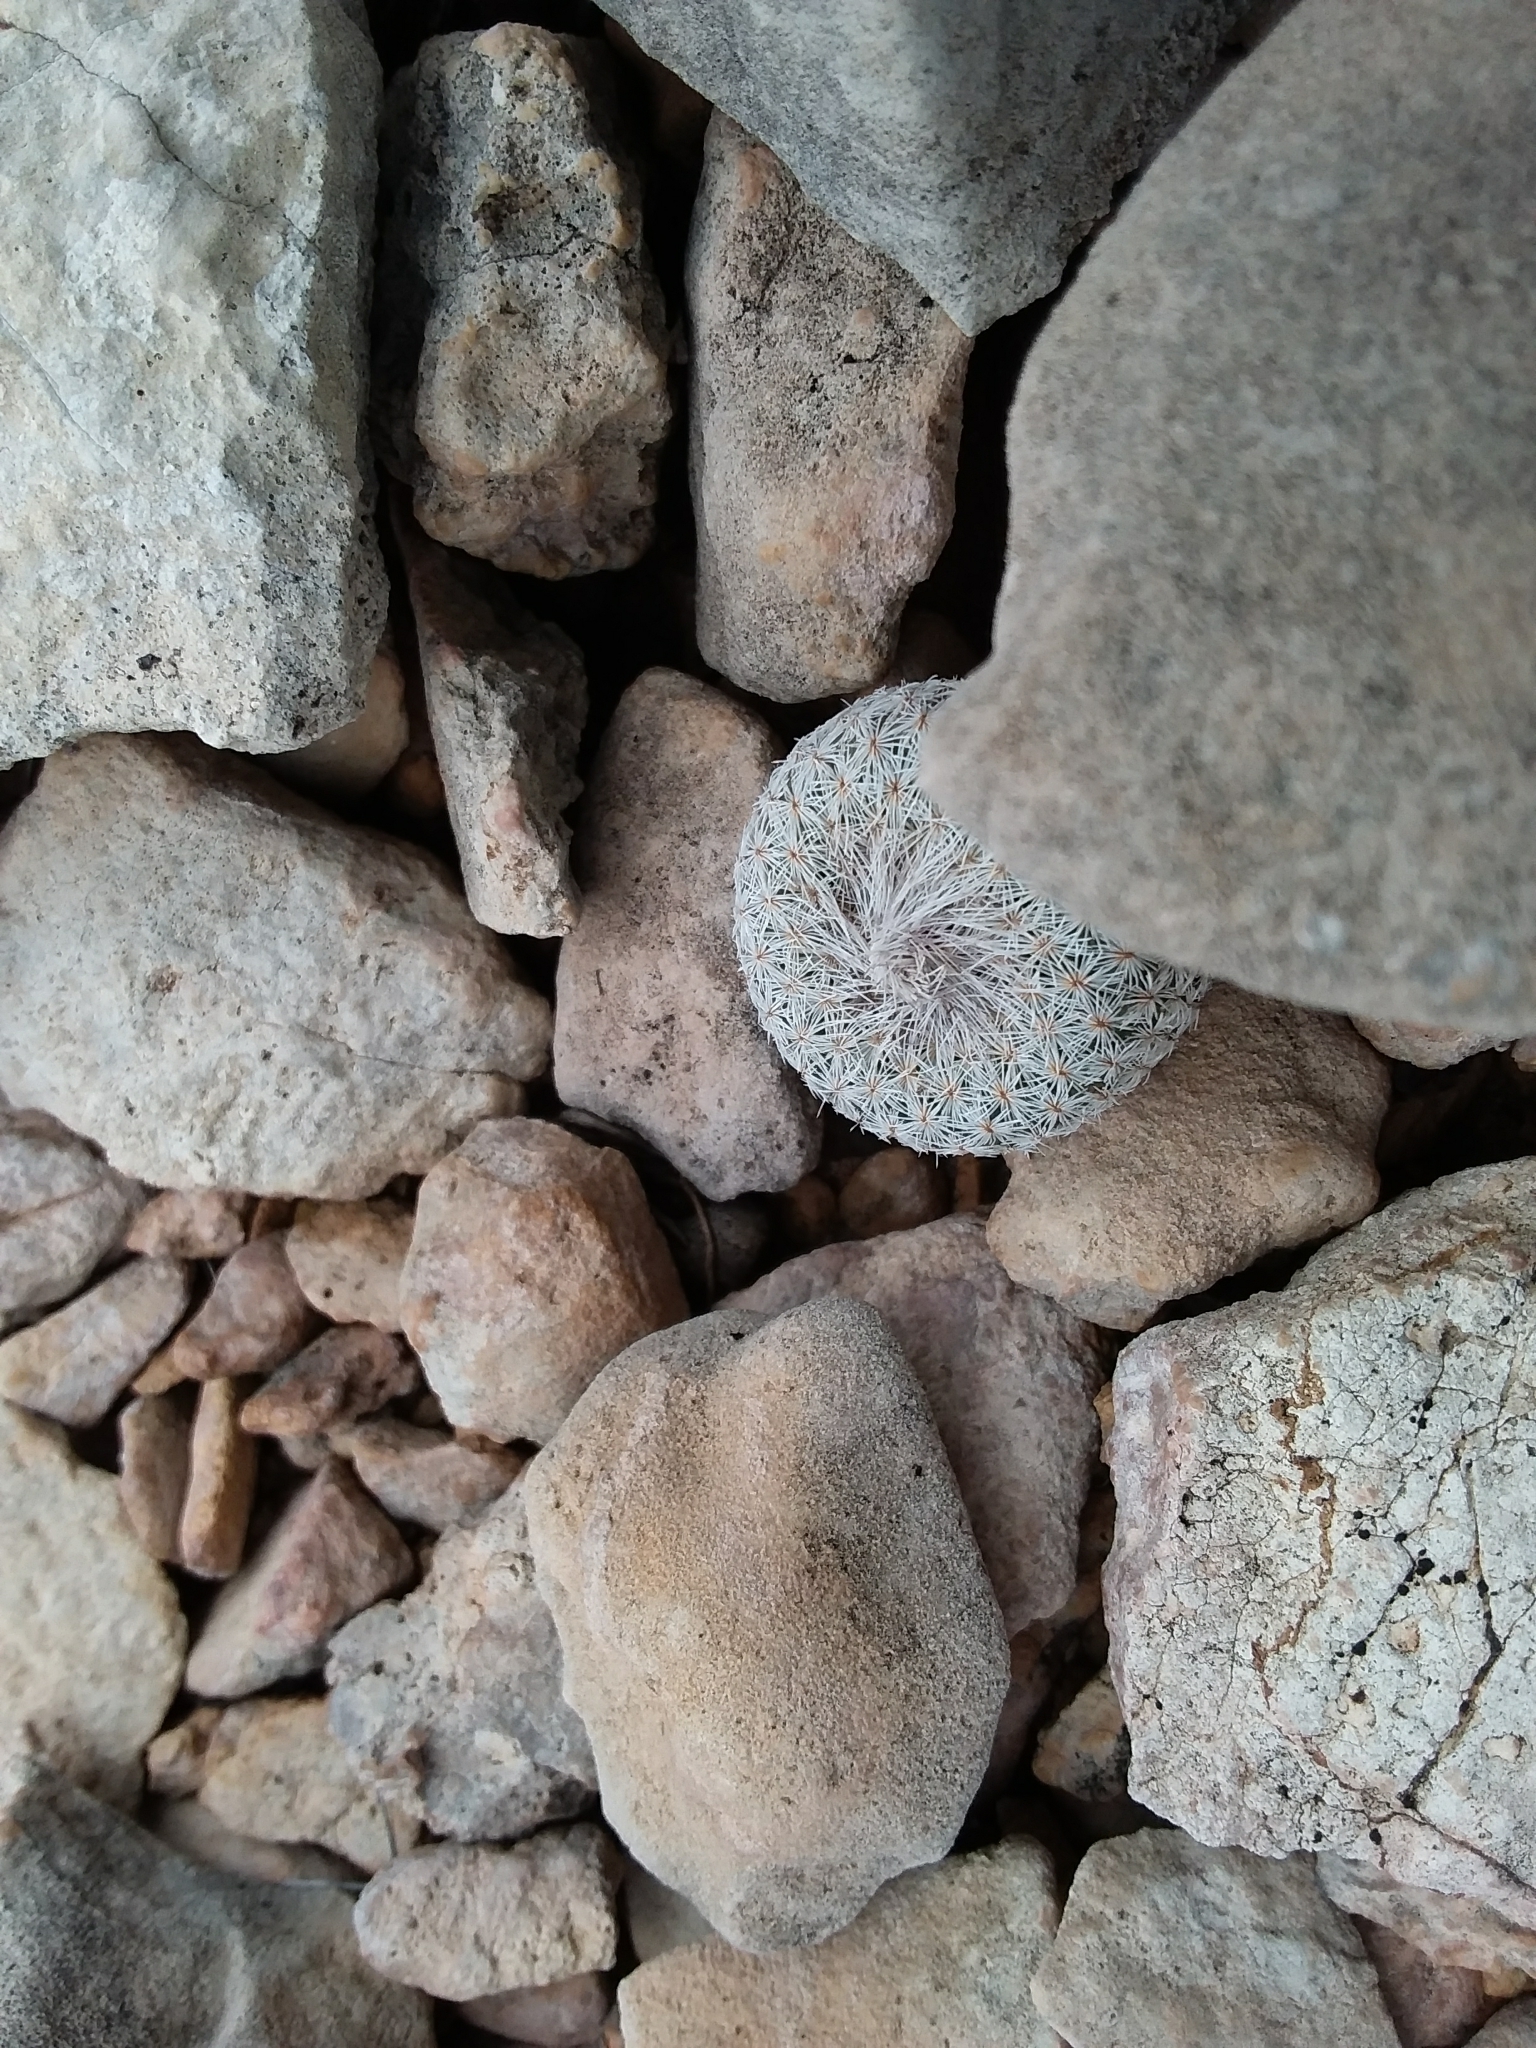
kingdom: Plantae
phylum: Tracheophyta
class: Magnoliopsida
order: Caryophyllales
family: Cactaceae
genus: Epithelantha
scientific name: Epithelantha micromeris
